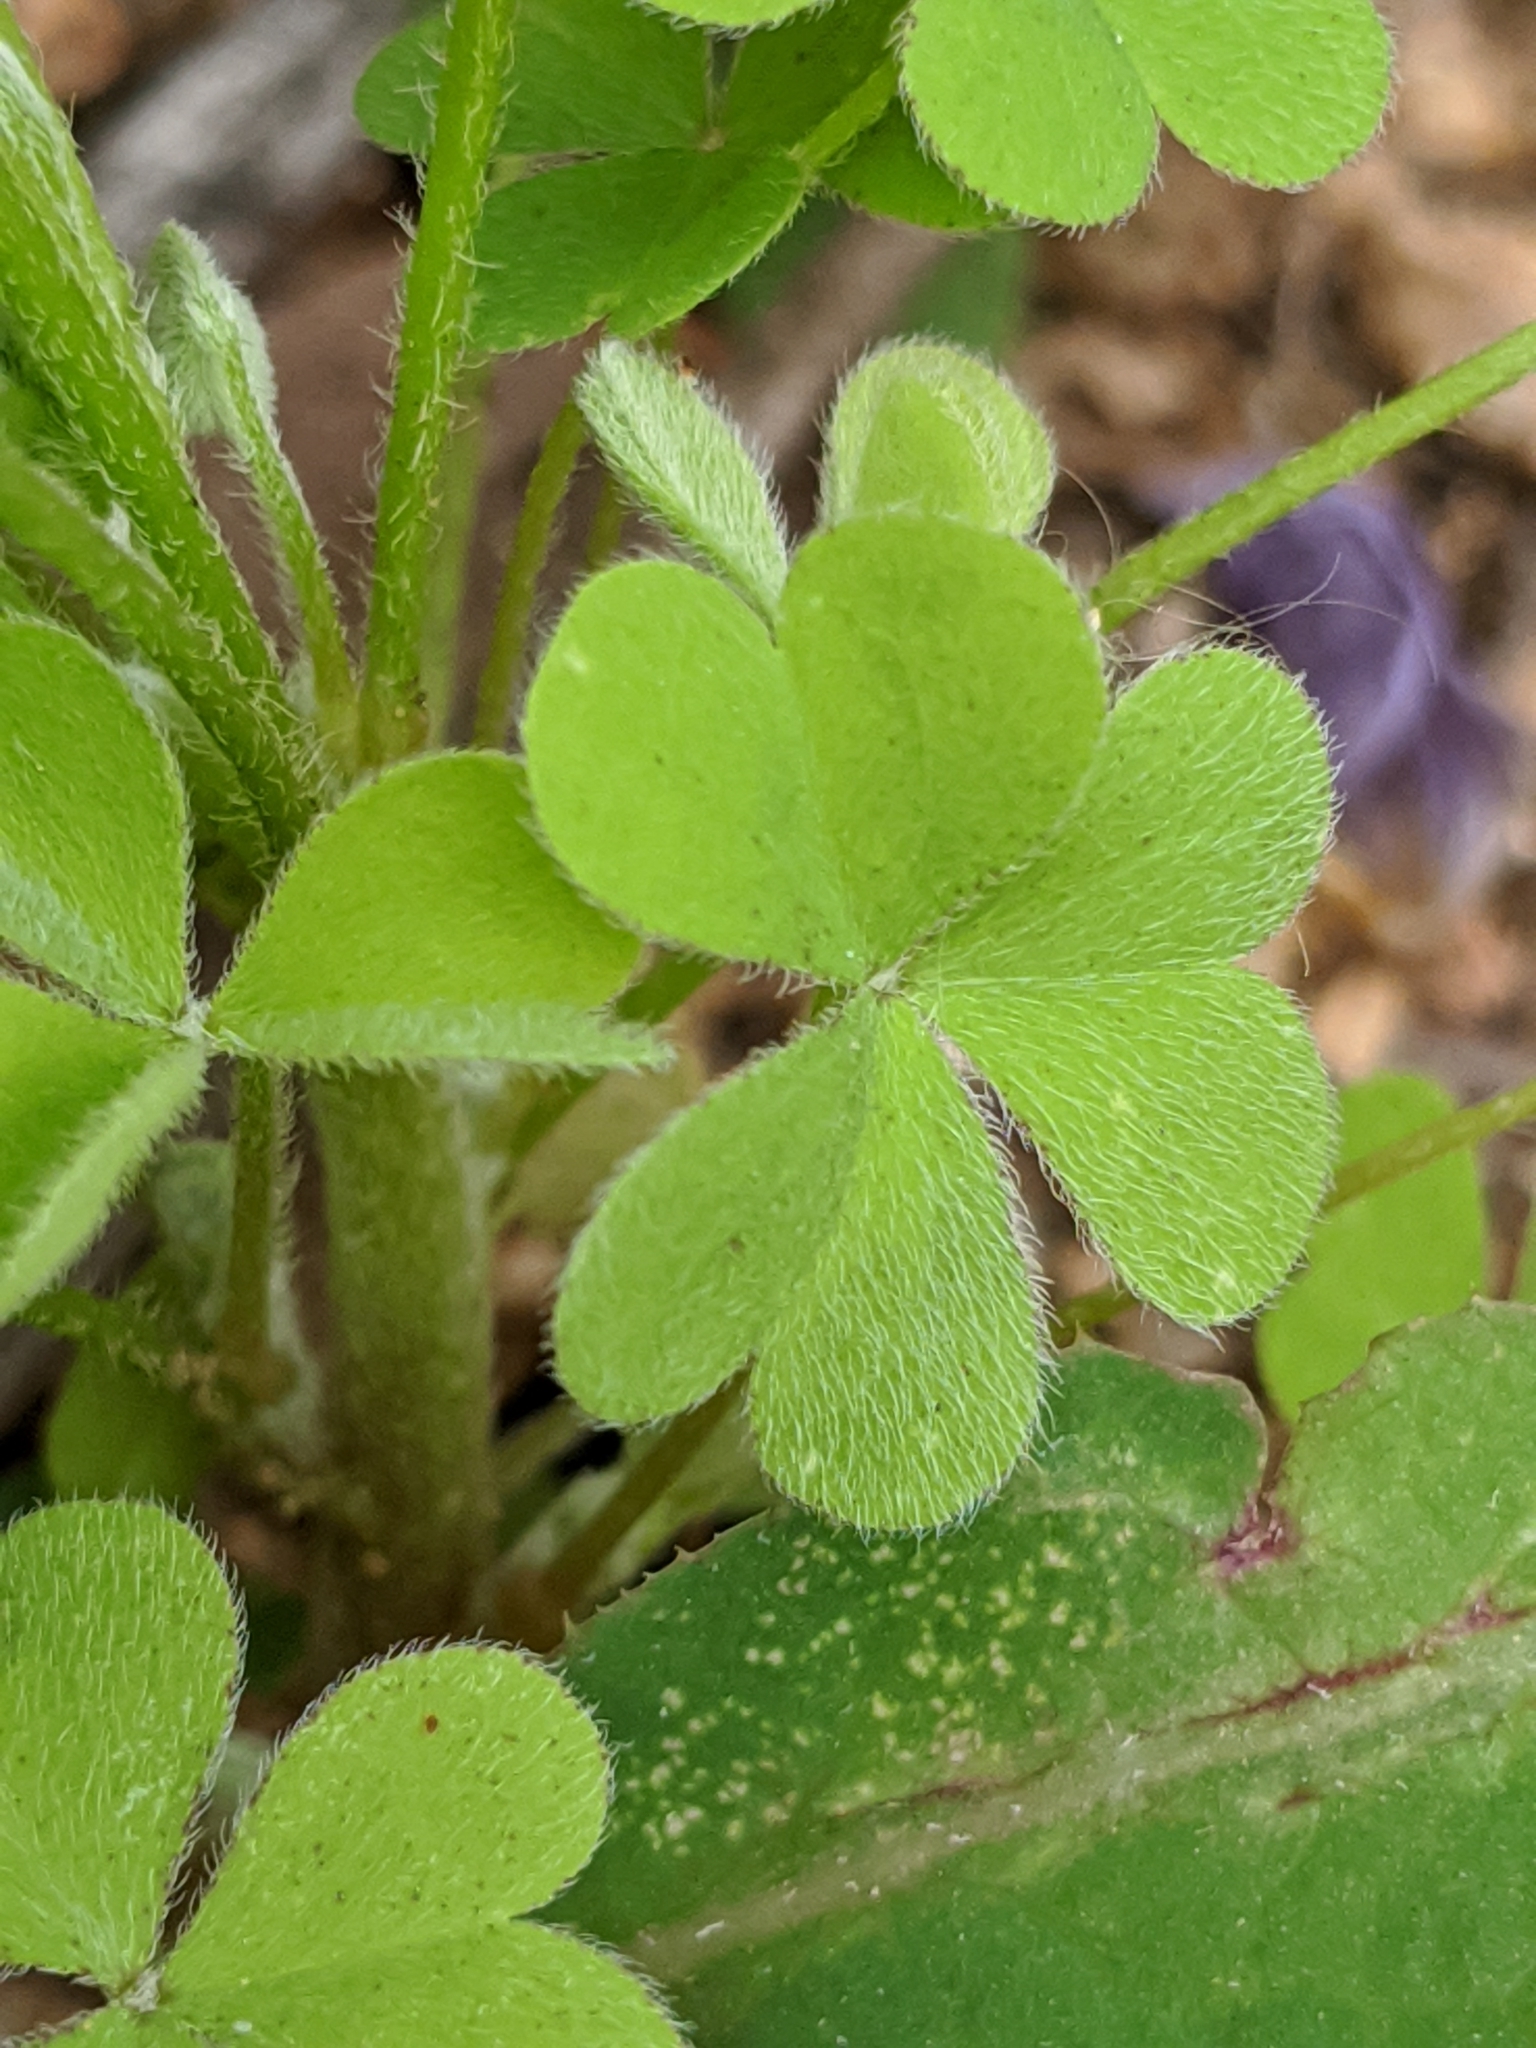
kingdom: Plantae
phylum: Tracheophyta
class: Magnoliopsida
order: Oxalidales
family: Oxalidaceae
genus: Oxalis
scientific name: Oxalis dillenii
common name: Sussex yellow-sorrel
